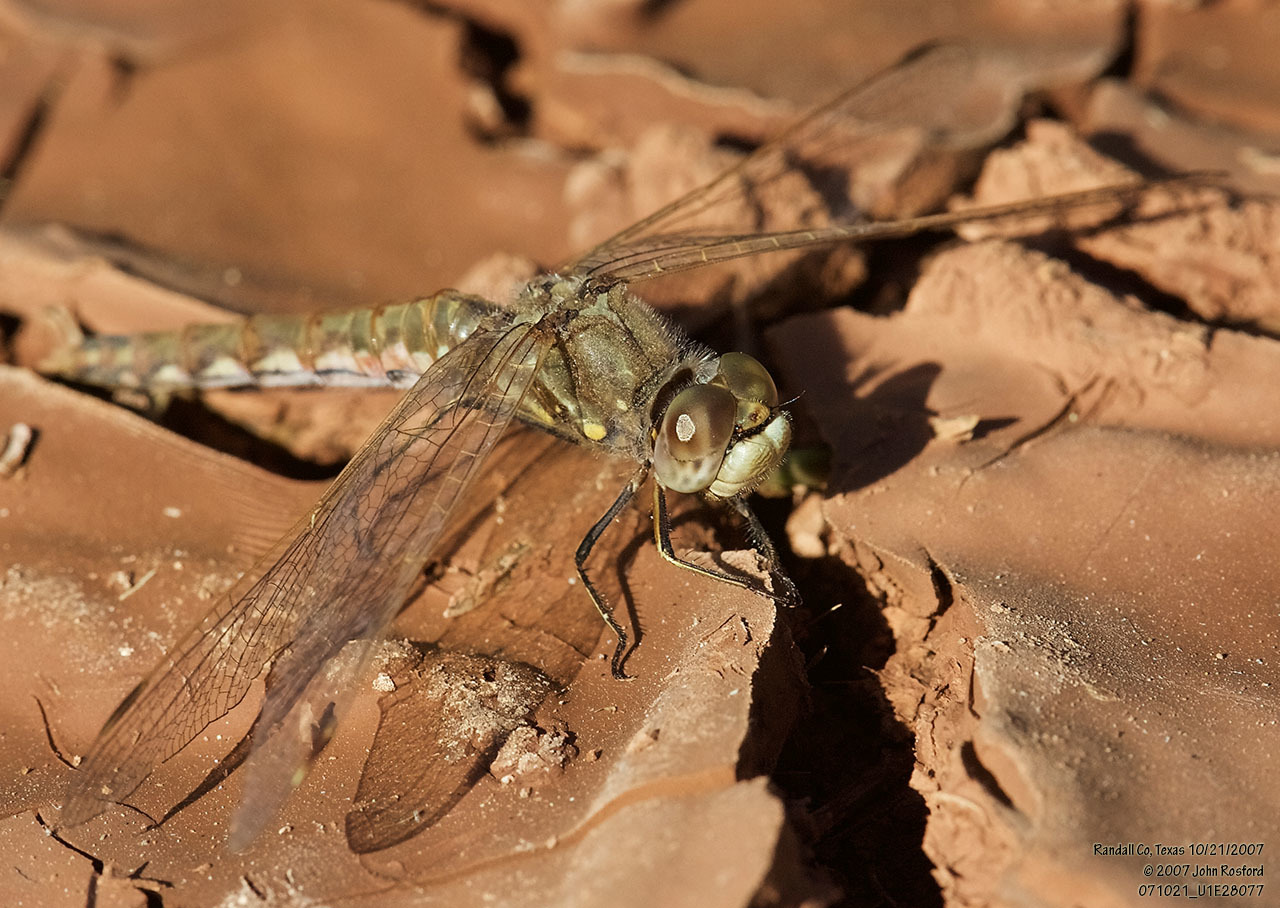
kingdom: Animalia
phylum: Arthropoda
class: Insecta
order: Odonata
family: Libellulidae
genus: Sympetrum
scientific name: Sympetrum corruptum
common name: Variegated meadowhawk
